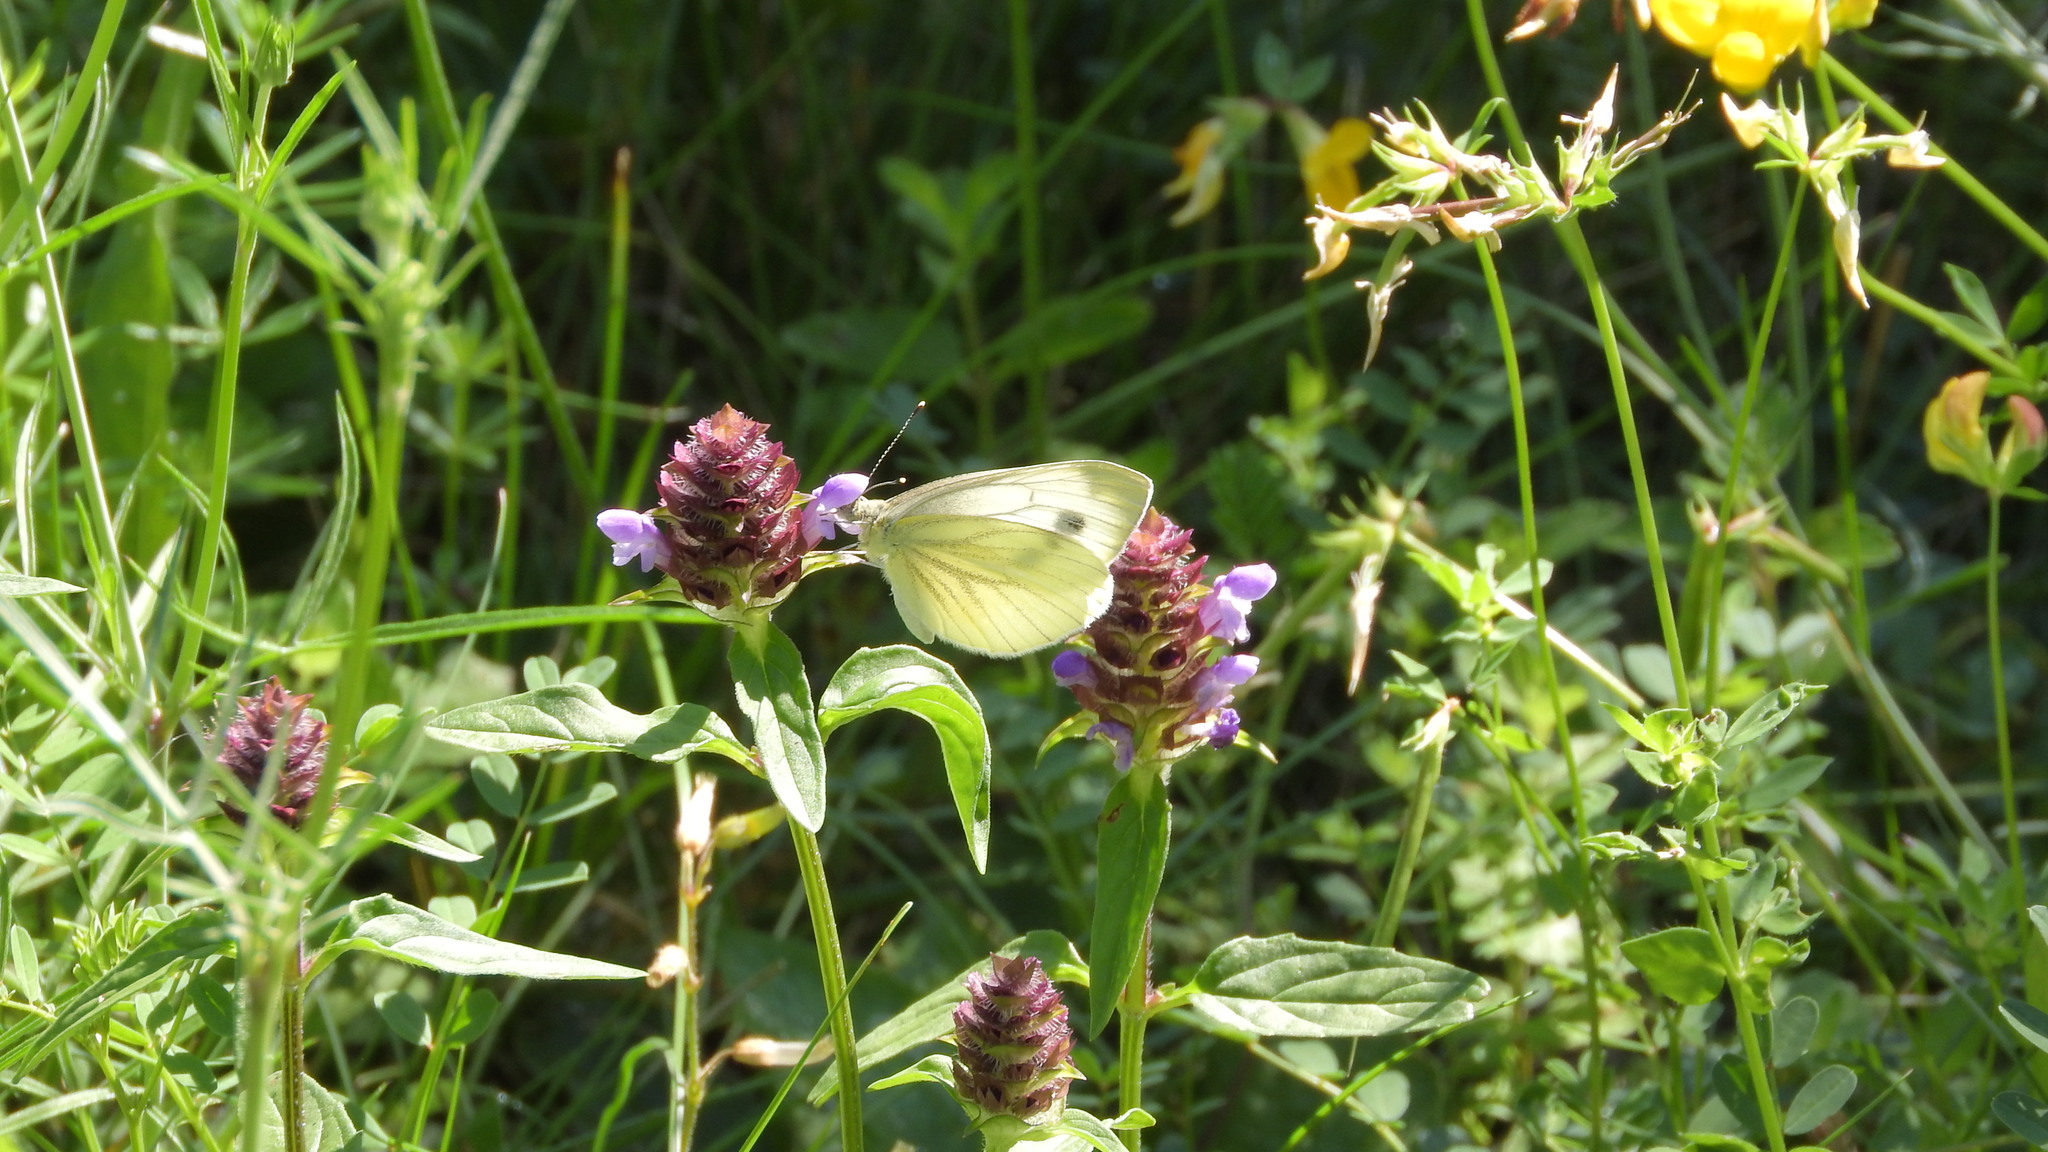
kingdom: Animalia
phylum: Arthropoda
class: Insecta
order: Lepidoptera
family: Pieridae
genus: Pieris
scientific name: Pieris napi
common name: Green-veined white
